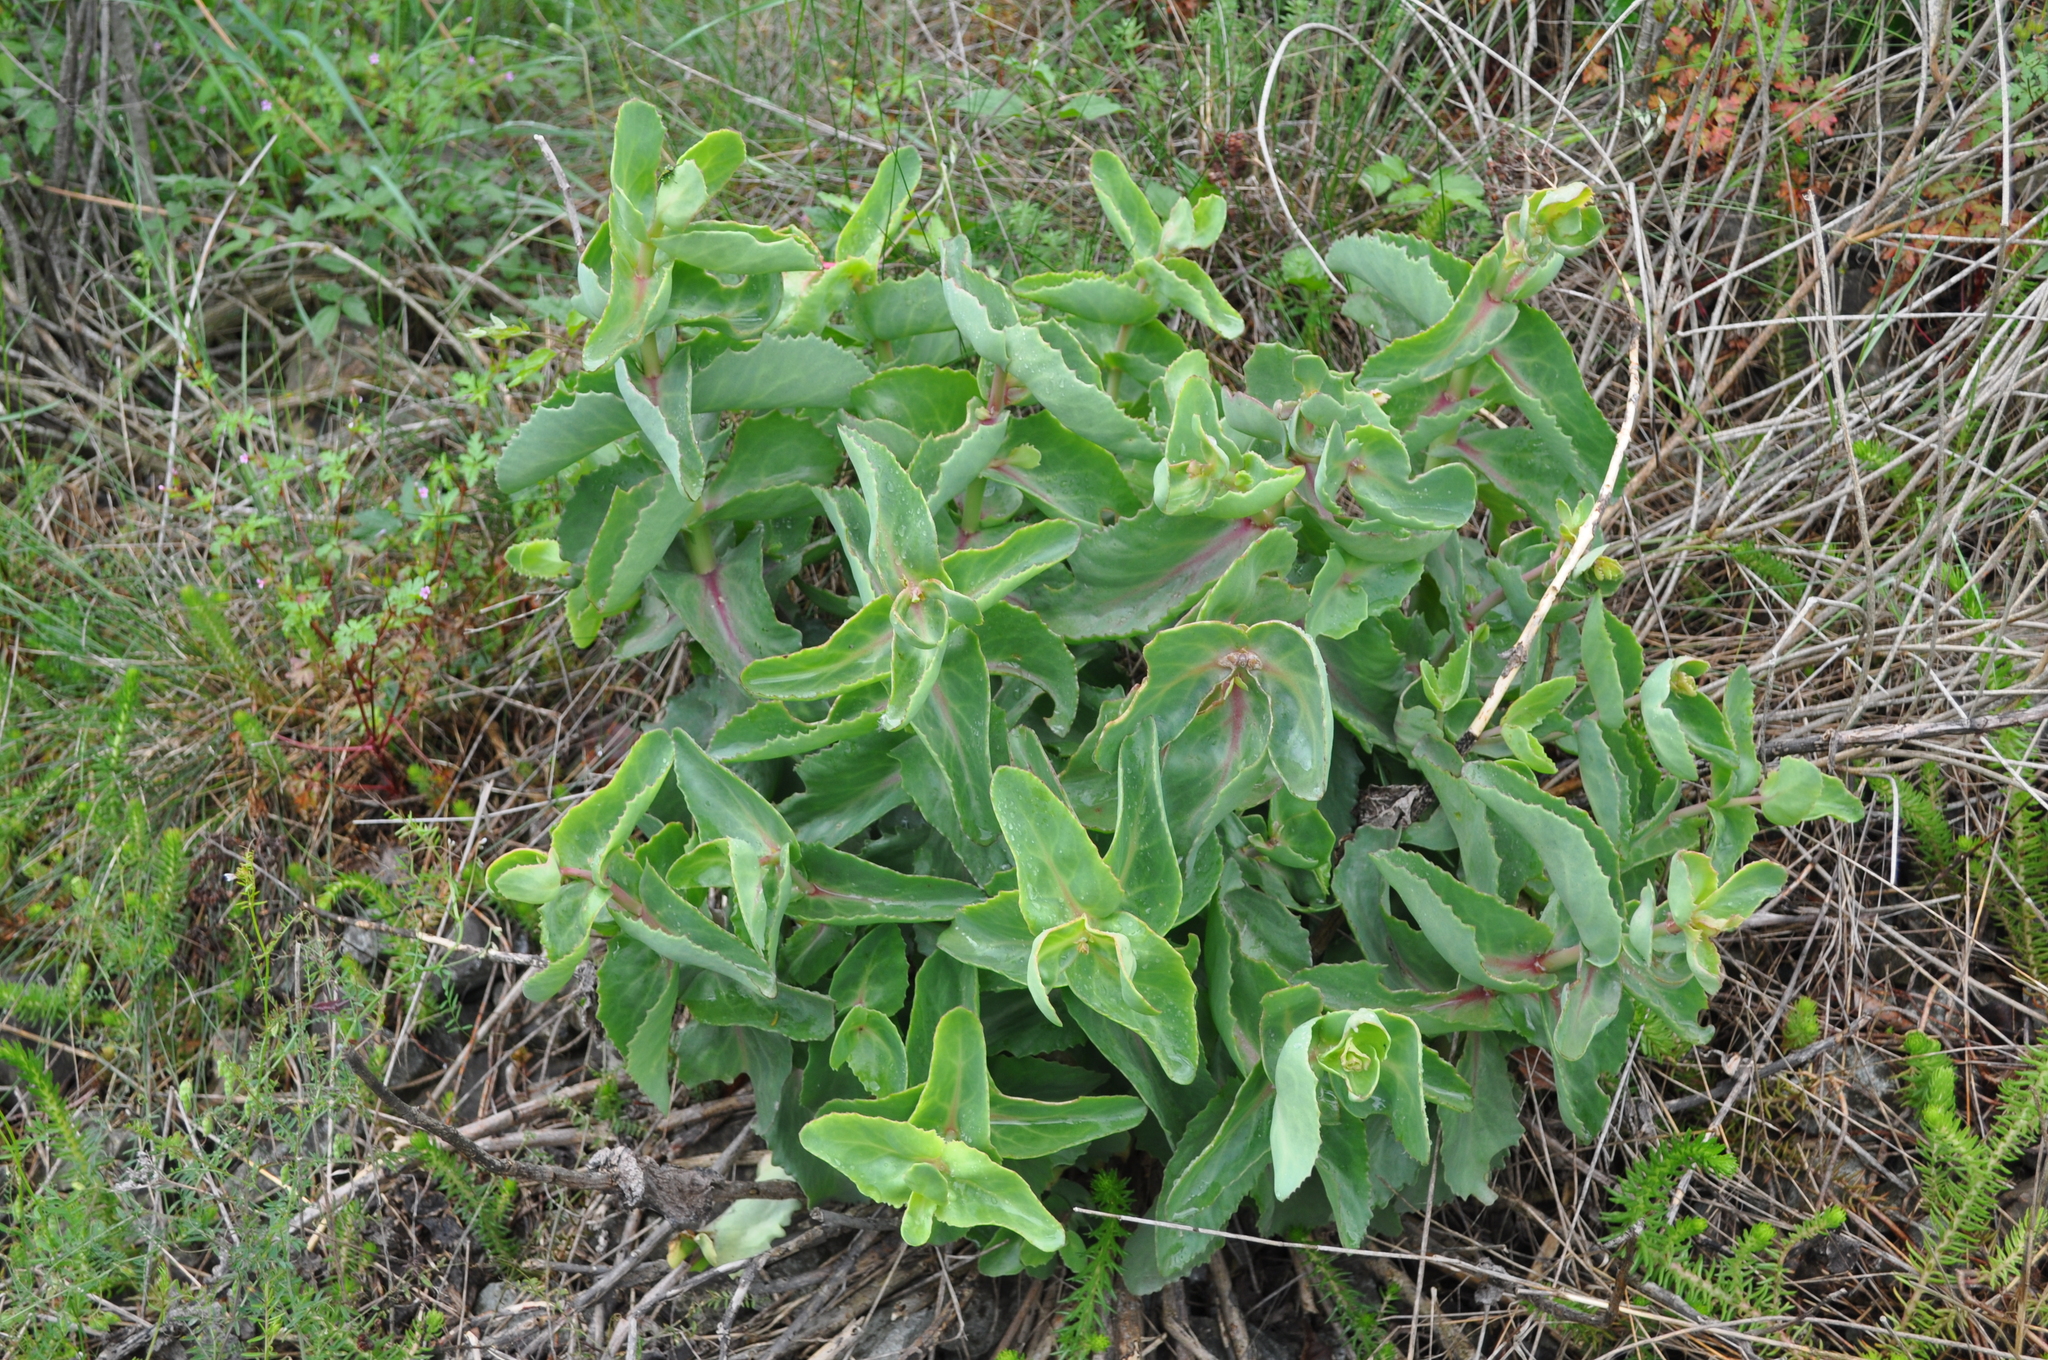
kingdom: Plantae
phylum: Tracheophyta
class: Magnoliopsida
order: Saxifragales
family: Crassulaceae
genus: Hylotelephium
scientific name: Hylotelephium maximum
